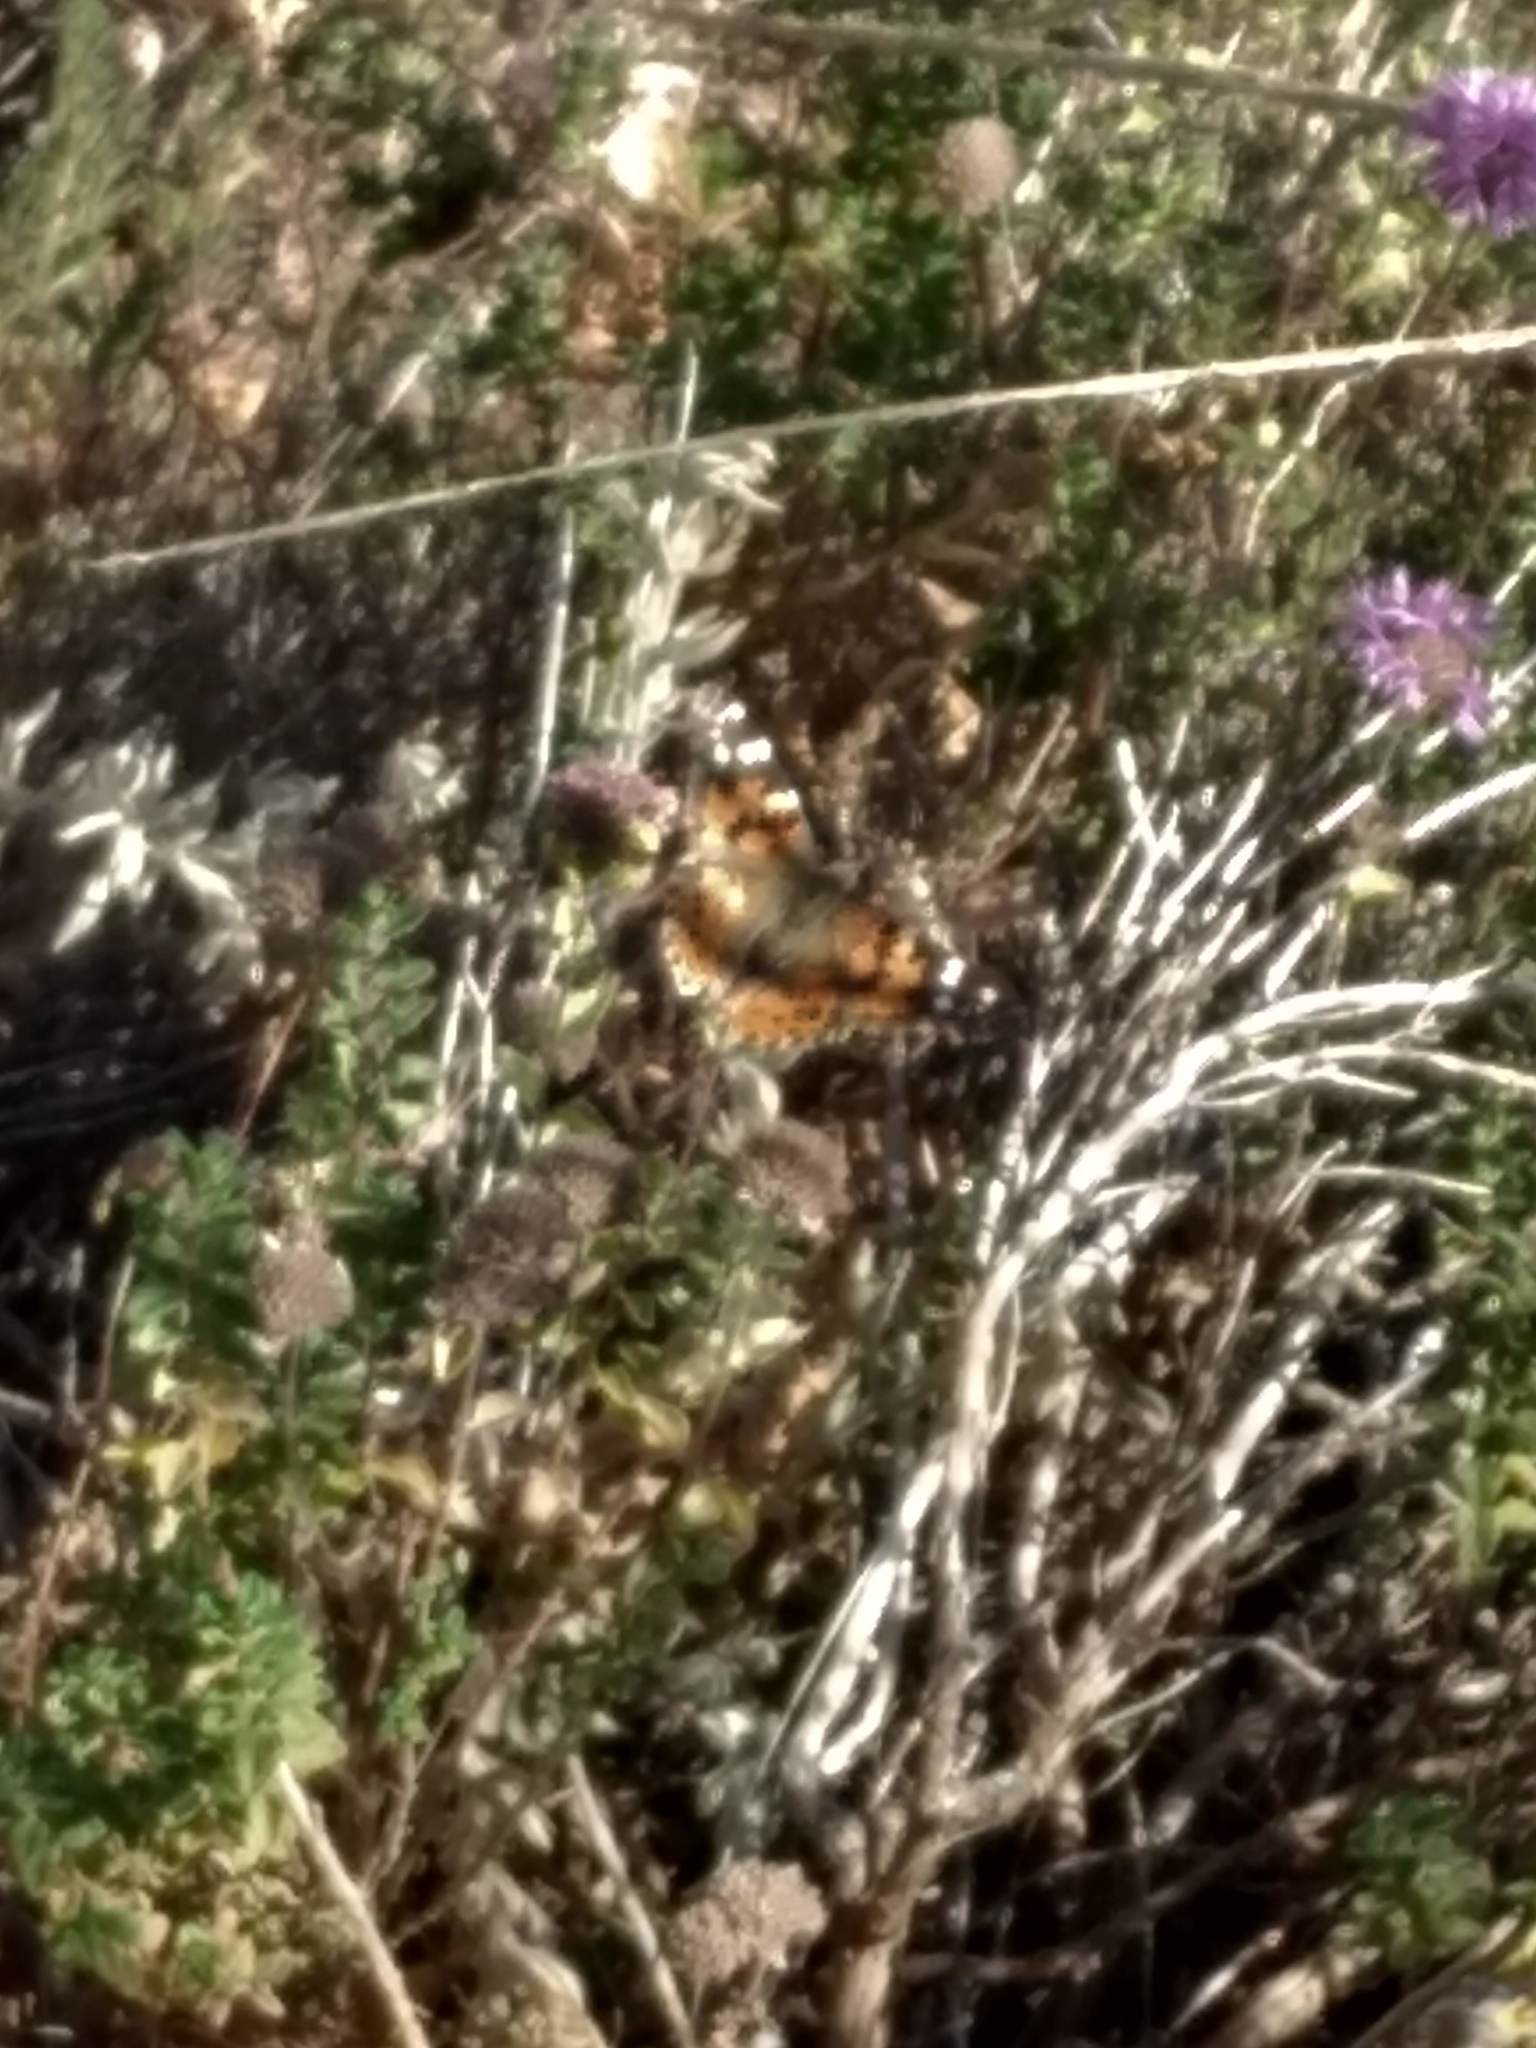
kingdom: Animalia
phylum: Arthropoda
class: Insecta
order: Lepidoptera
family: Nymphalidae
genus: Vanessa
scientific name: Vanessa cardui
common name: Painted lady
